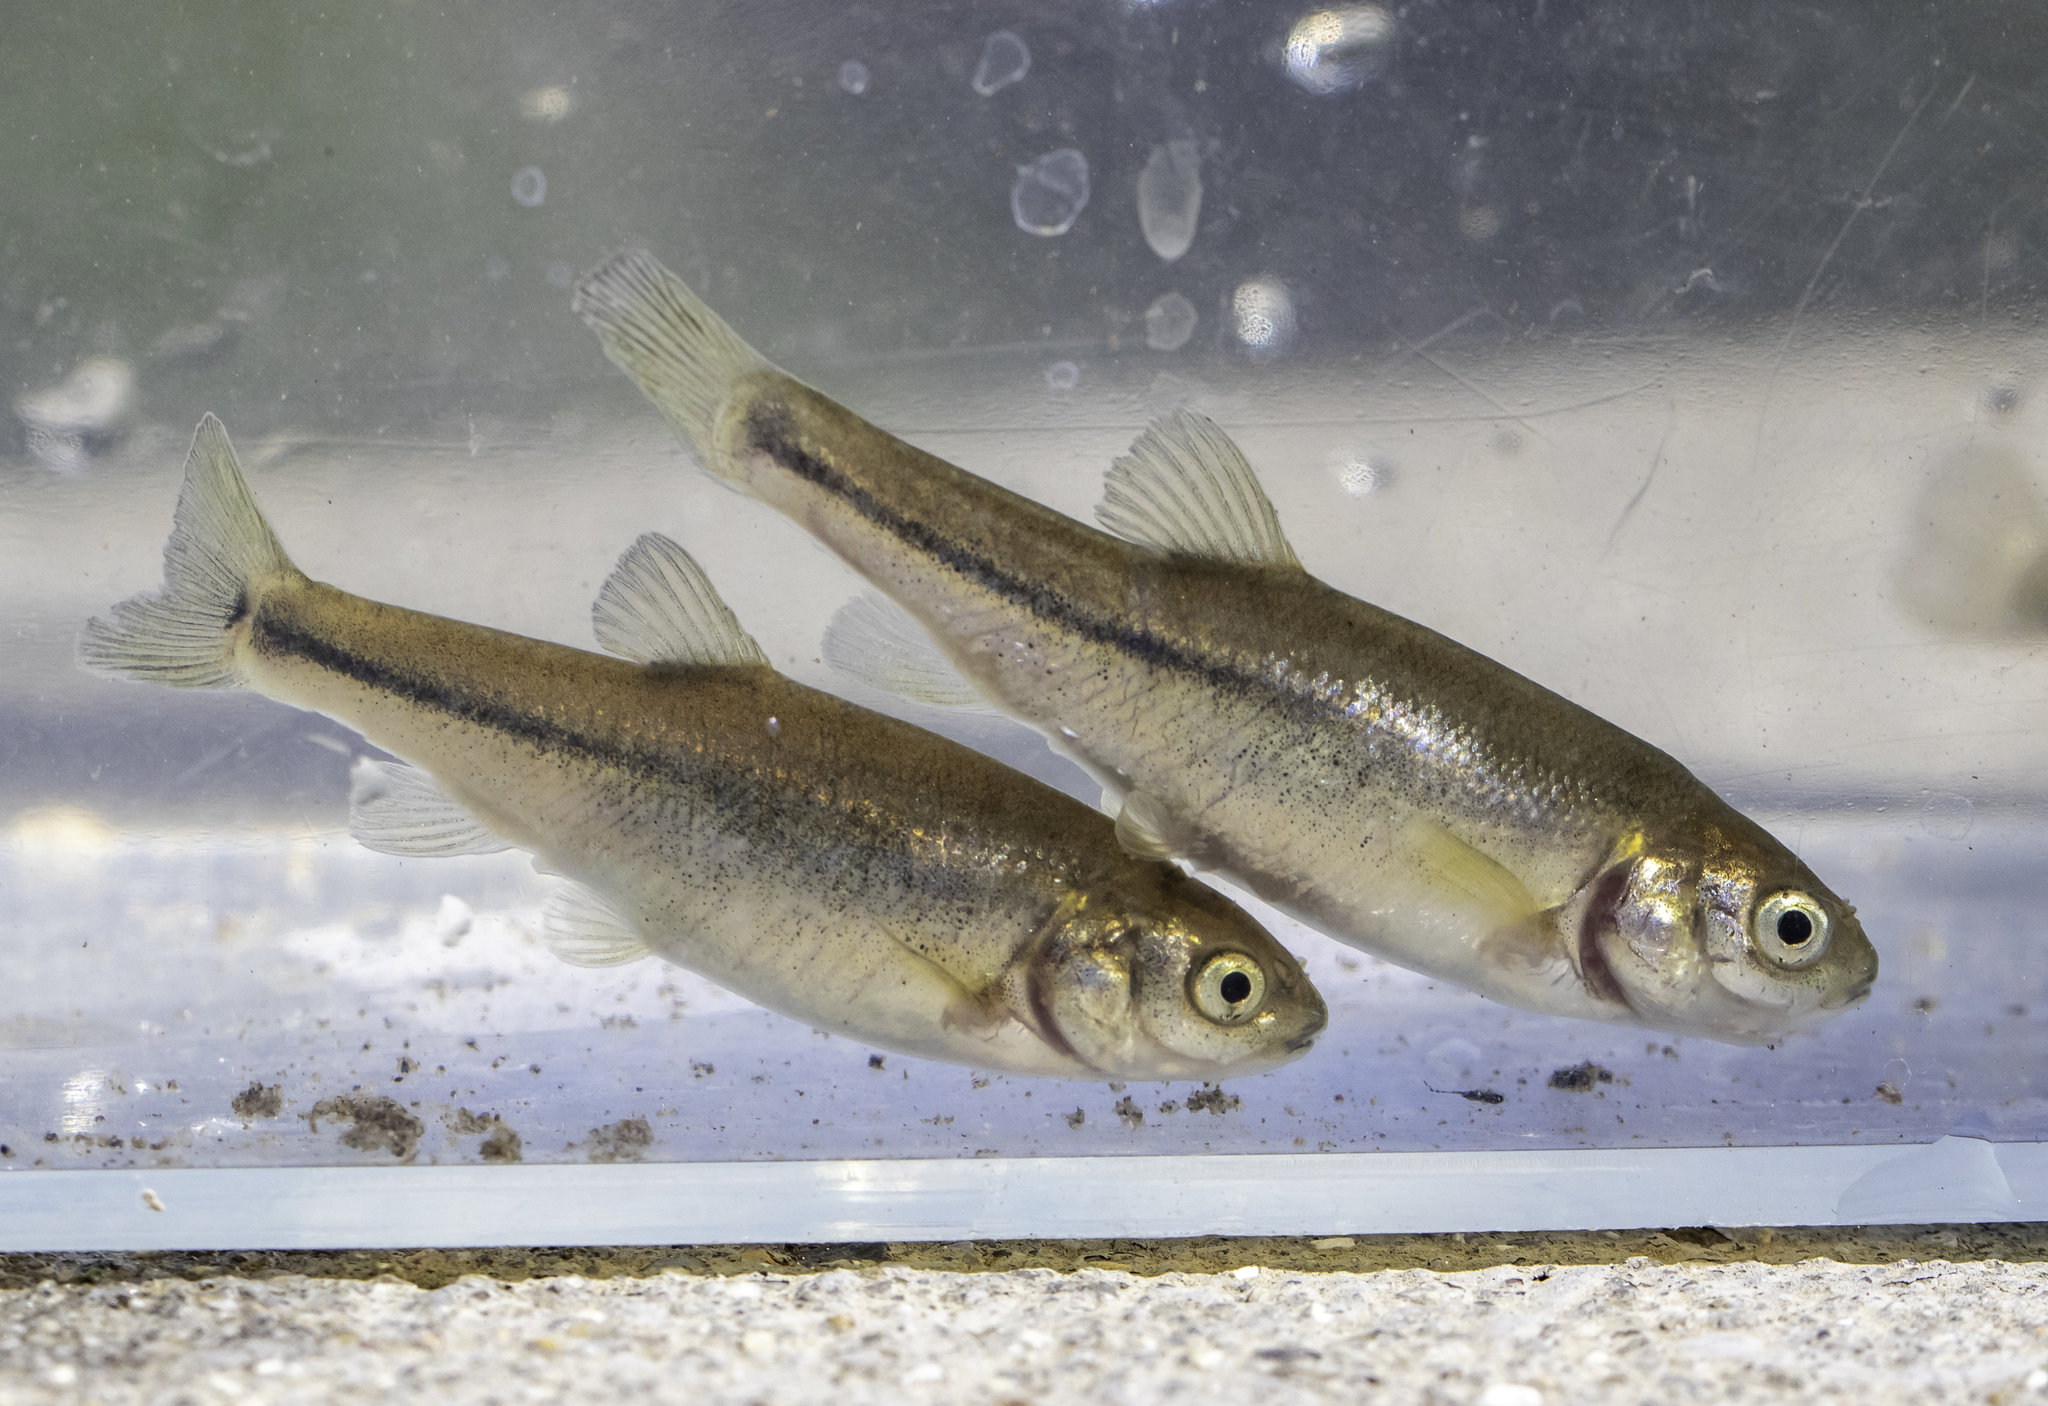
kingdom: Animalia
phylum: Chordata
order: Cypriniformes
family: Cyprinidae
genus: Gila
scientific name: Gila orcuttii
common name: Arroyo chub
